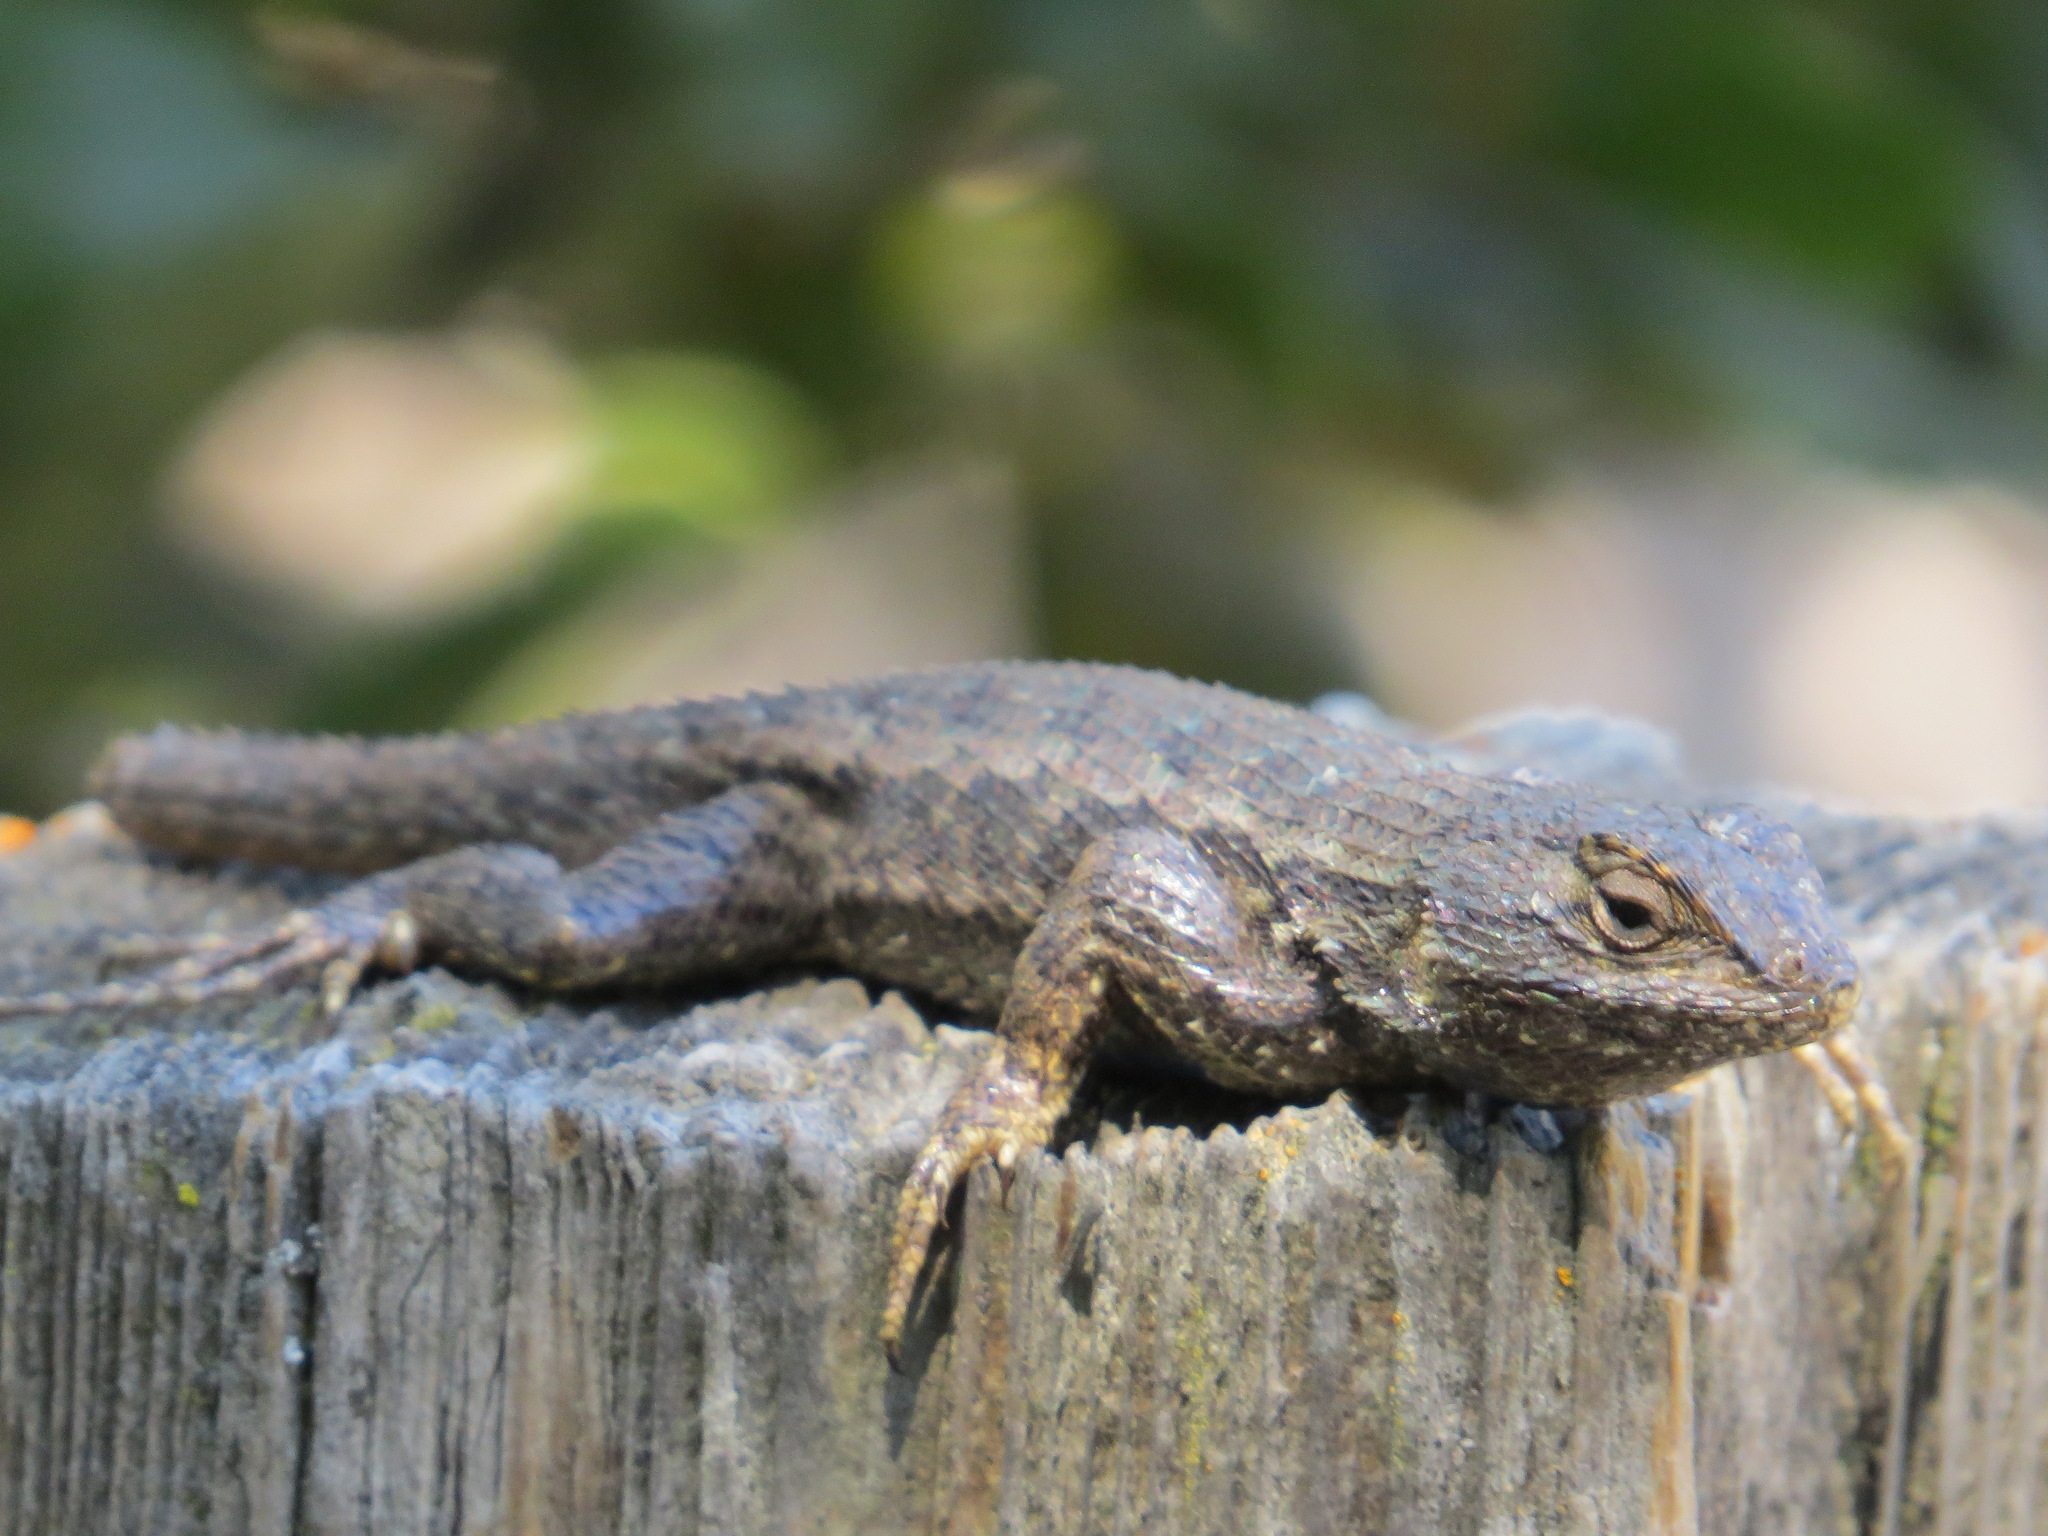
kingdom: Animalia
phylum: Chordata
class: Squamata
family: Phrynosomatidae
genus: Sceloporus
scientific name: Sceloporus occidentalis
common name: Western fence lizard
